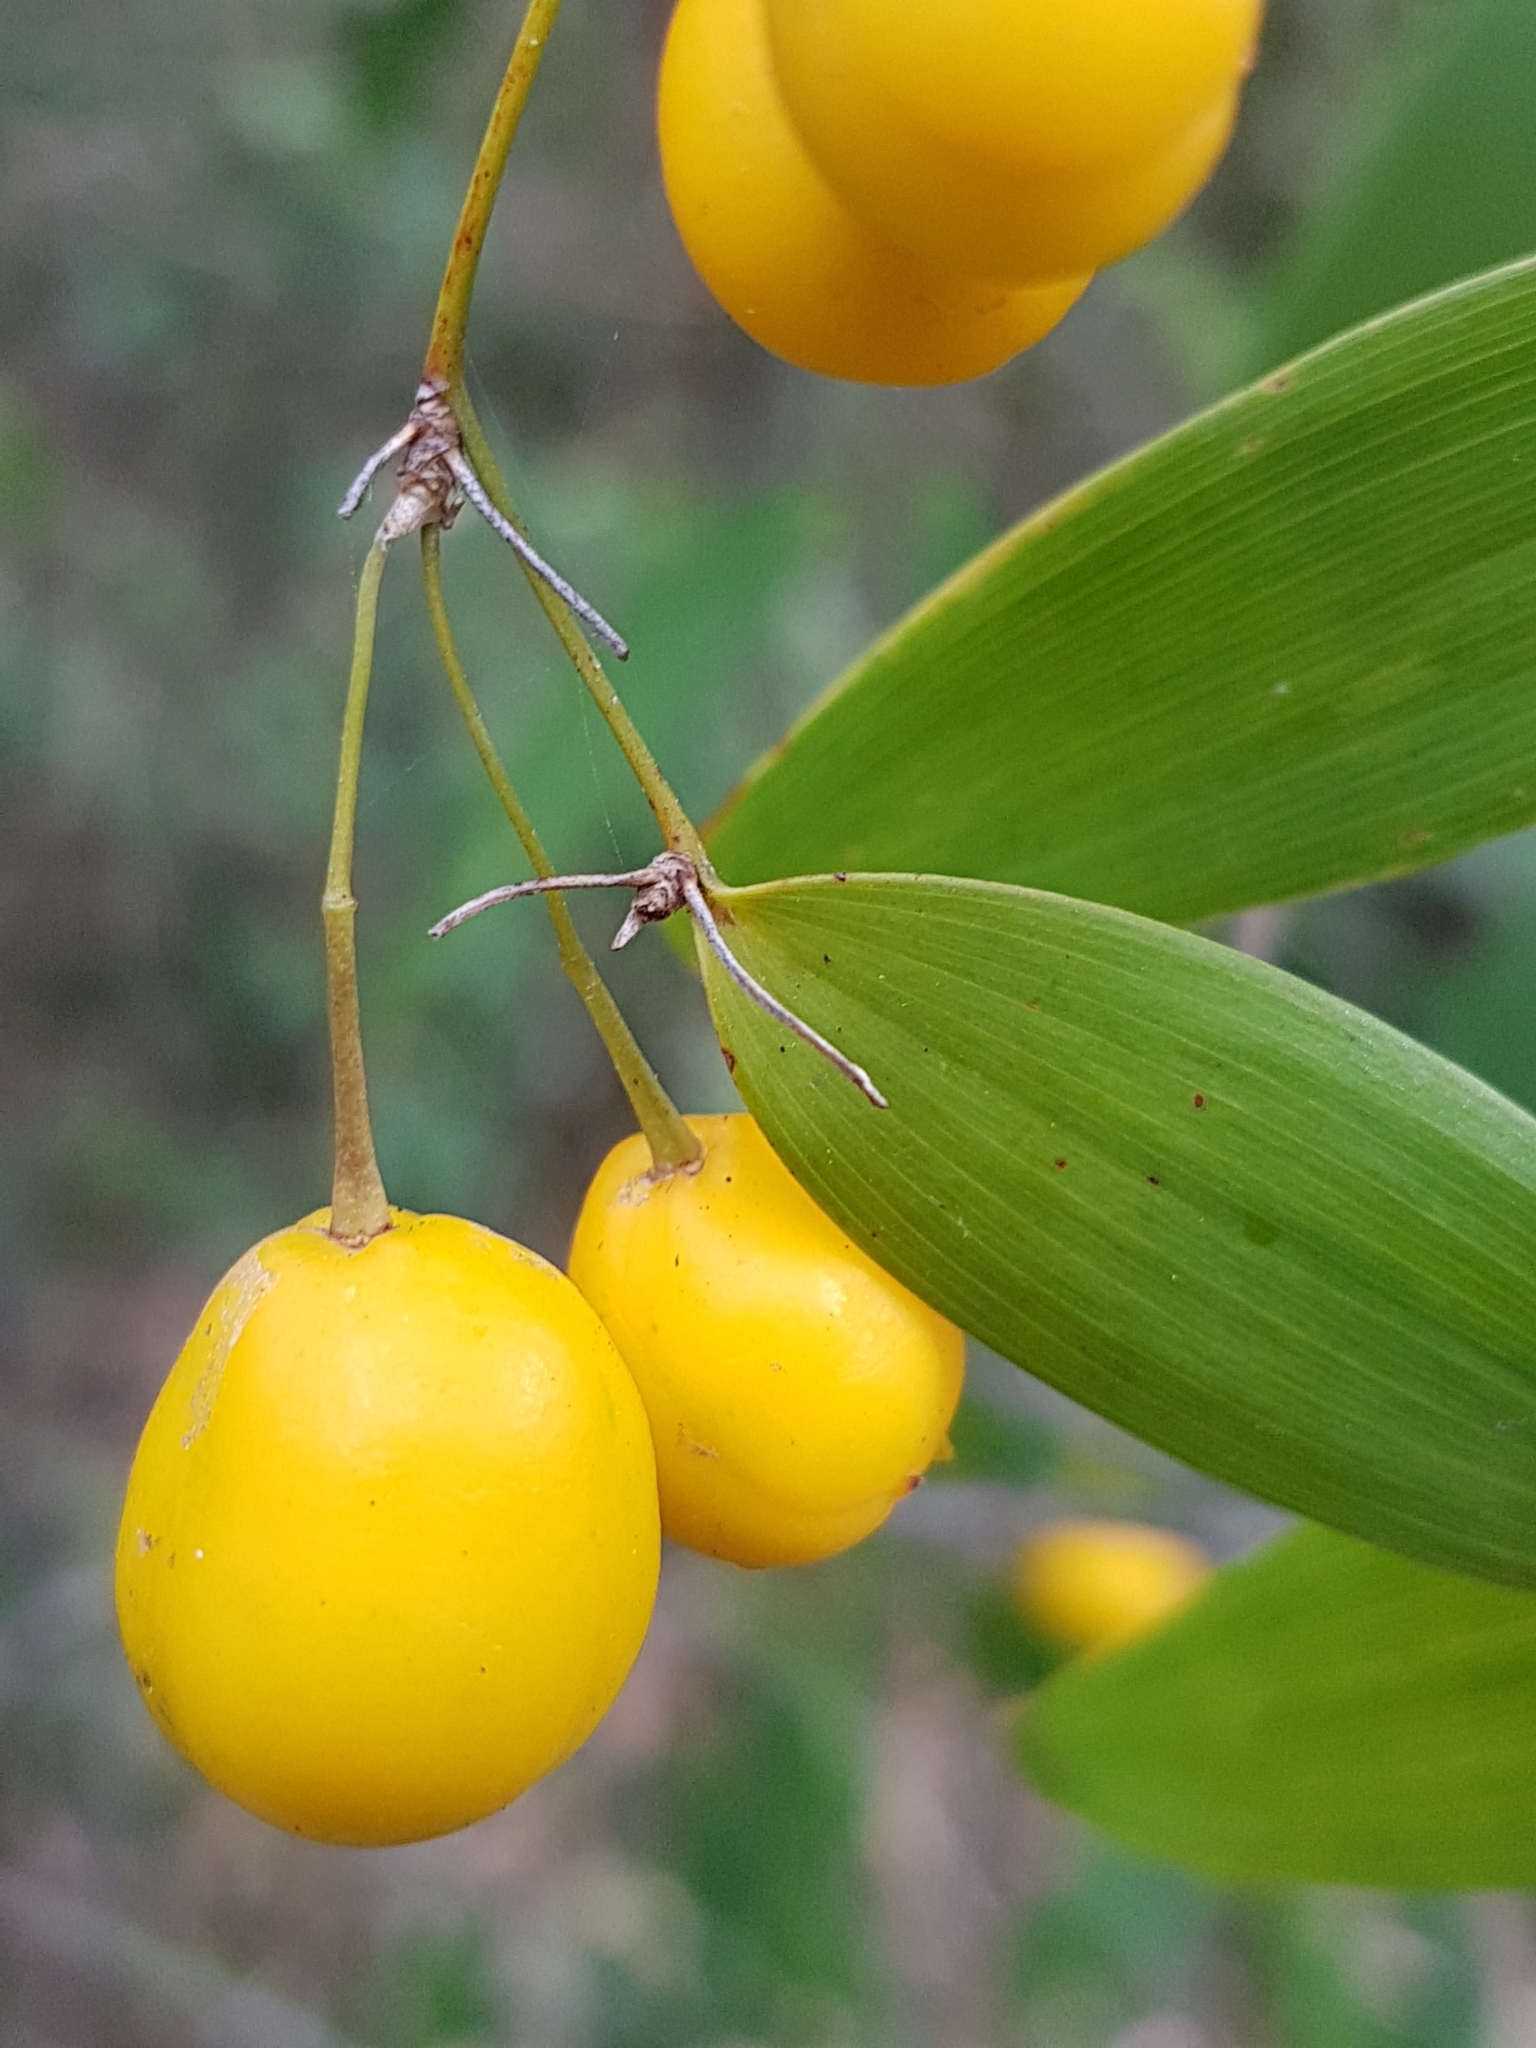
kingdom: Plantae
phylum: Tracheophyta
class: Liliopsida
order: Asparagales
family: Asparagaceae
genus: Eustrephus
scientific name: Eustrephus latifolius
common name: Orangevine
